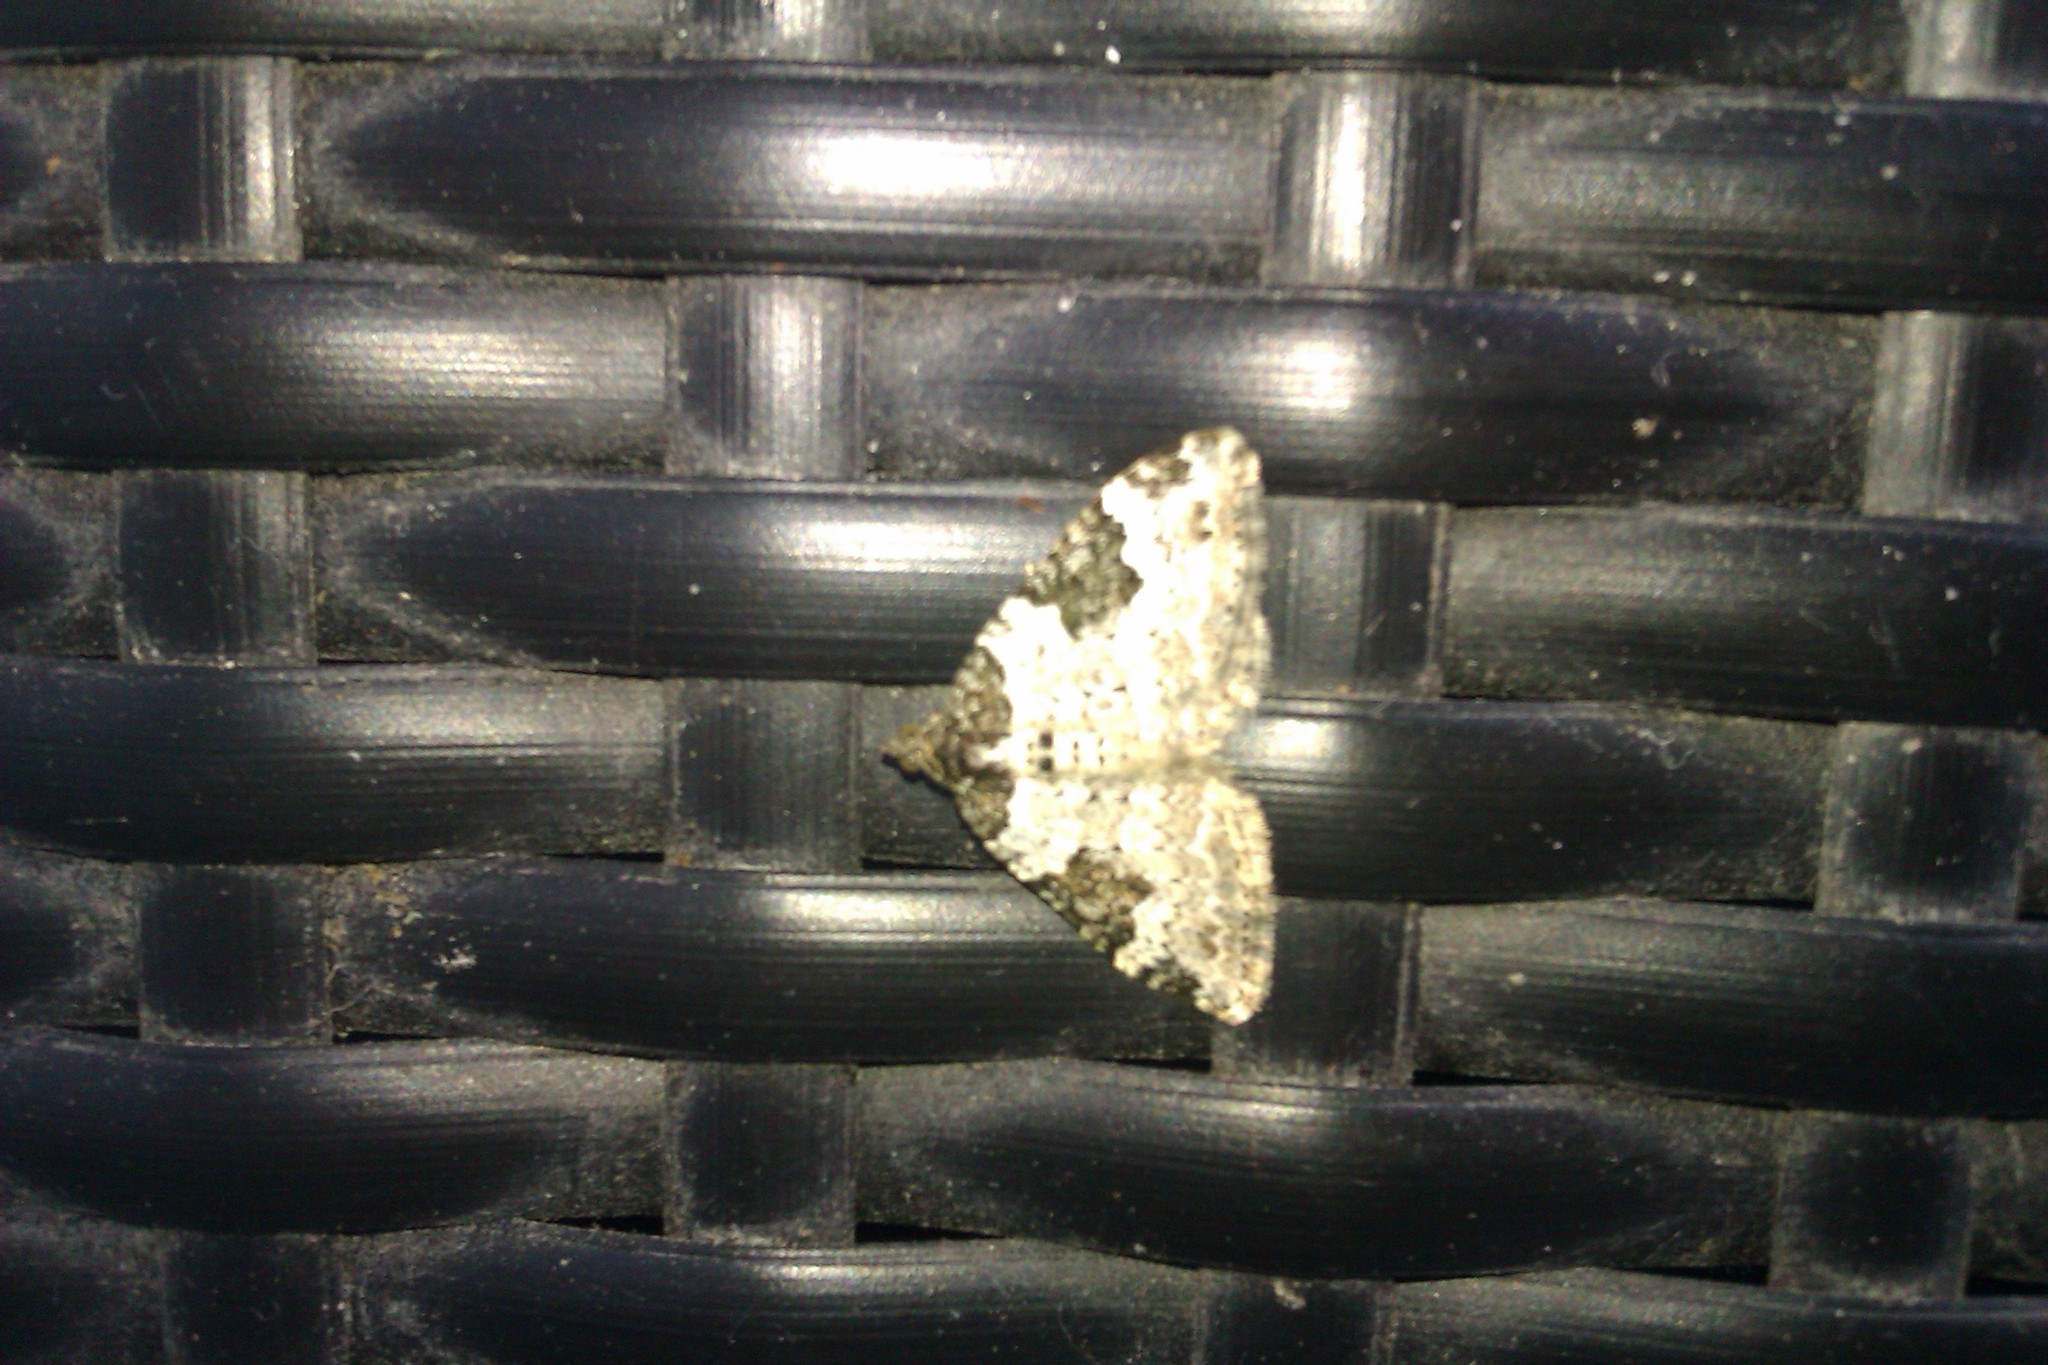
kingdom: Animalia
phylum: Arthropoda
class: Insecta
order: Lepidoptera
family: Geometridae
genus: Xanthorhoe
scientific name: Xanthorhoe fluctuata
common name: Garden carpet
